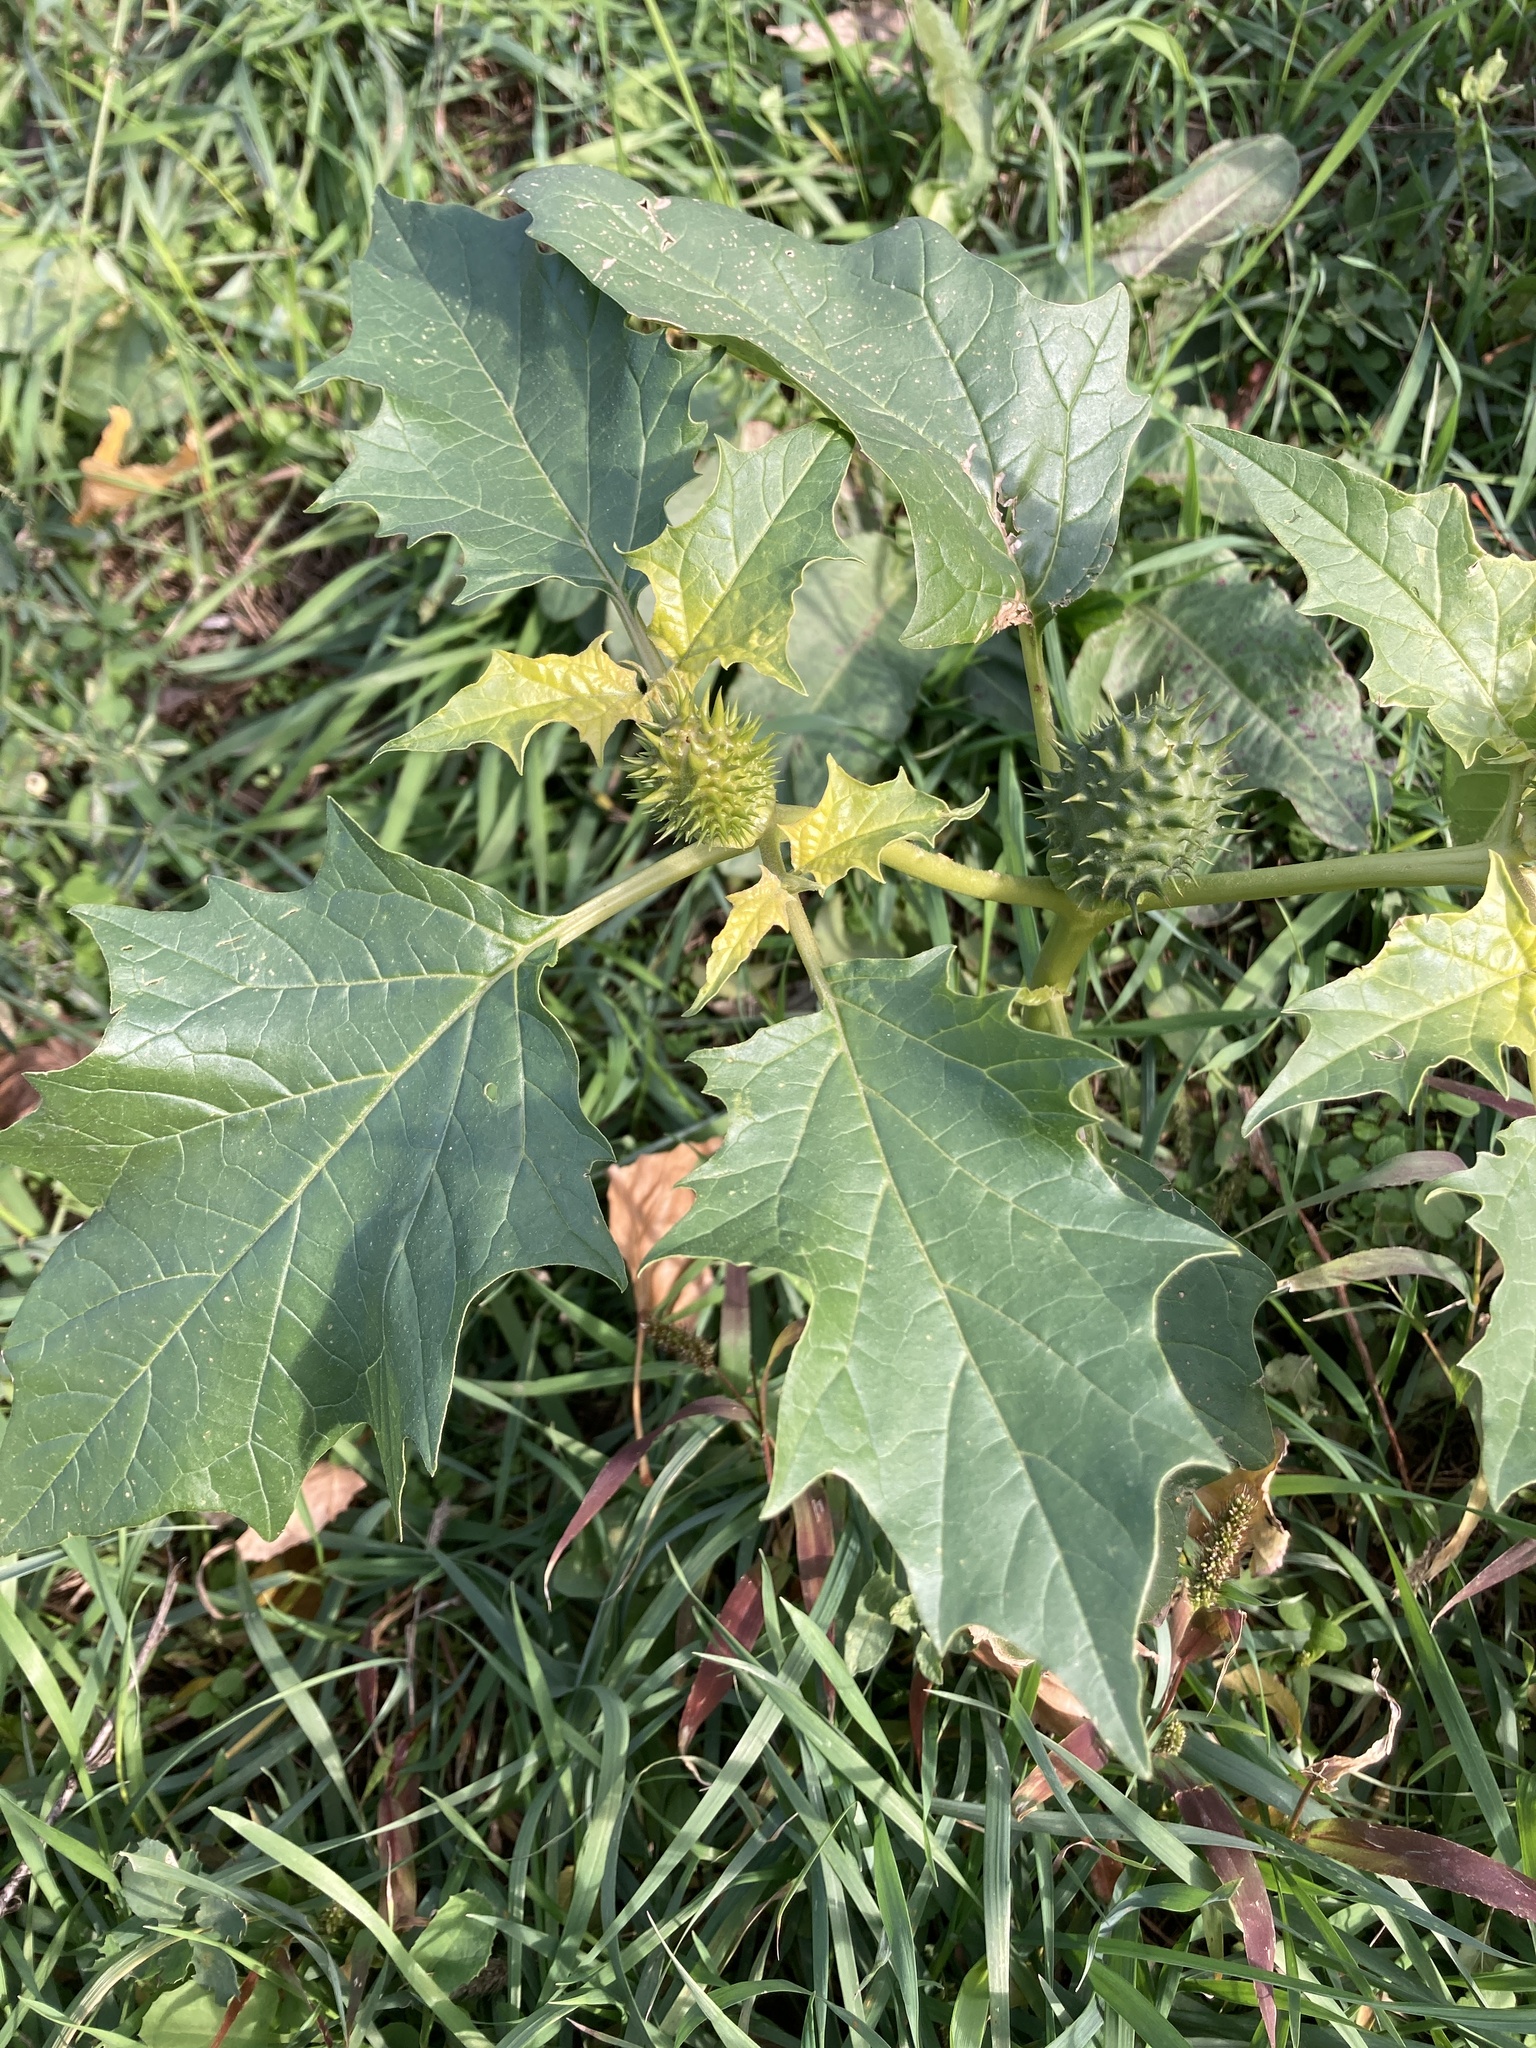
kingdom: Plantae
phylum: Tracheophyta
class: Magnoliopsida
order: Solanales
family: Solanaceae
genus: Datura
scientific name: Datura stramonium
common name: Thorn-apple
